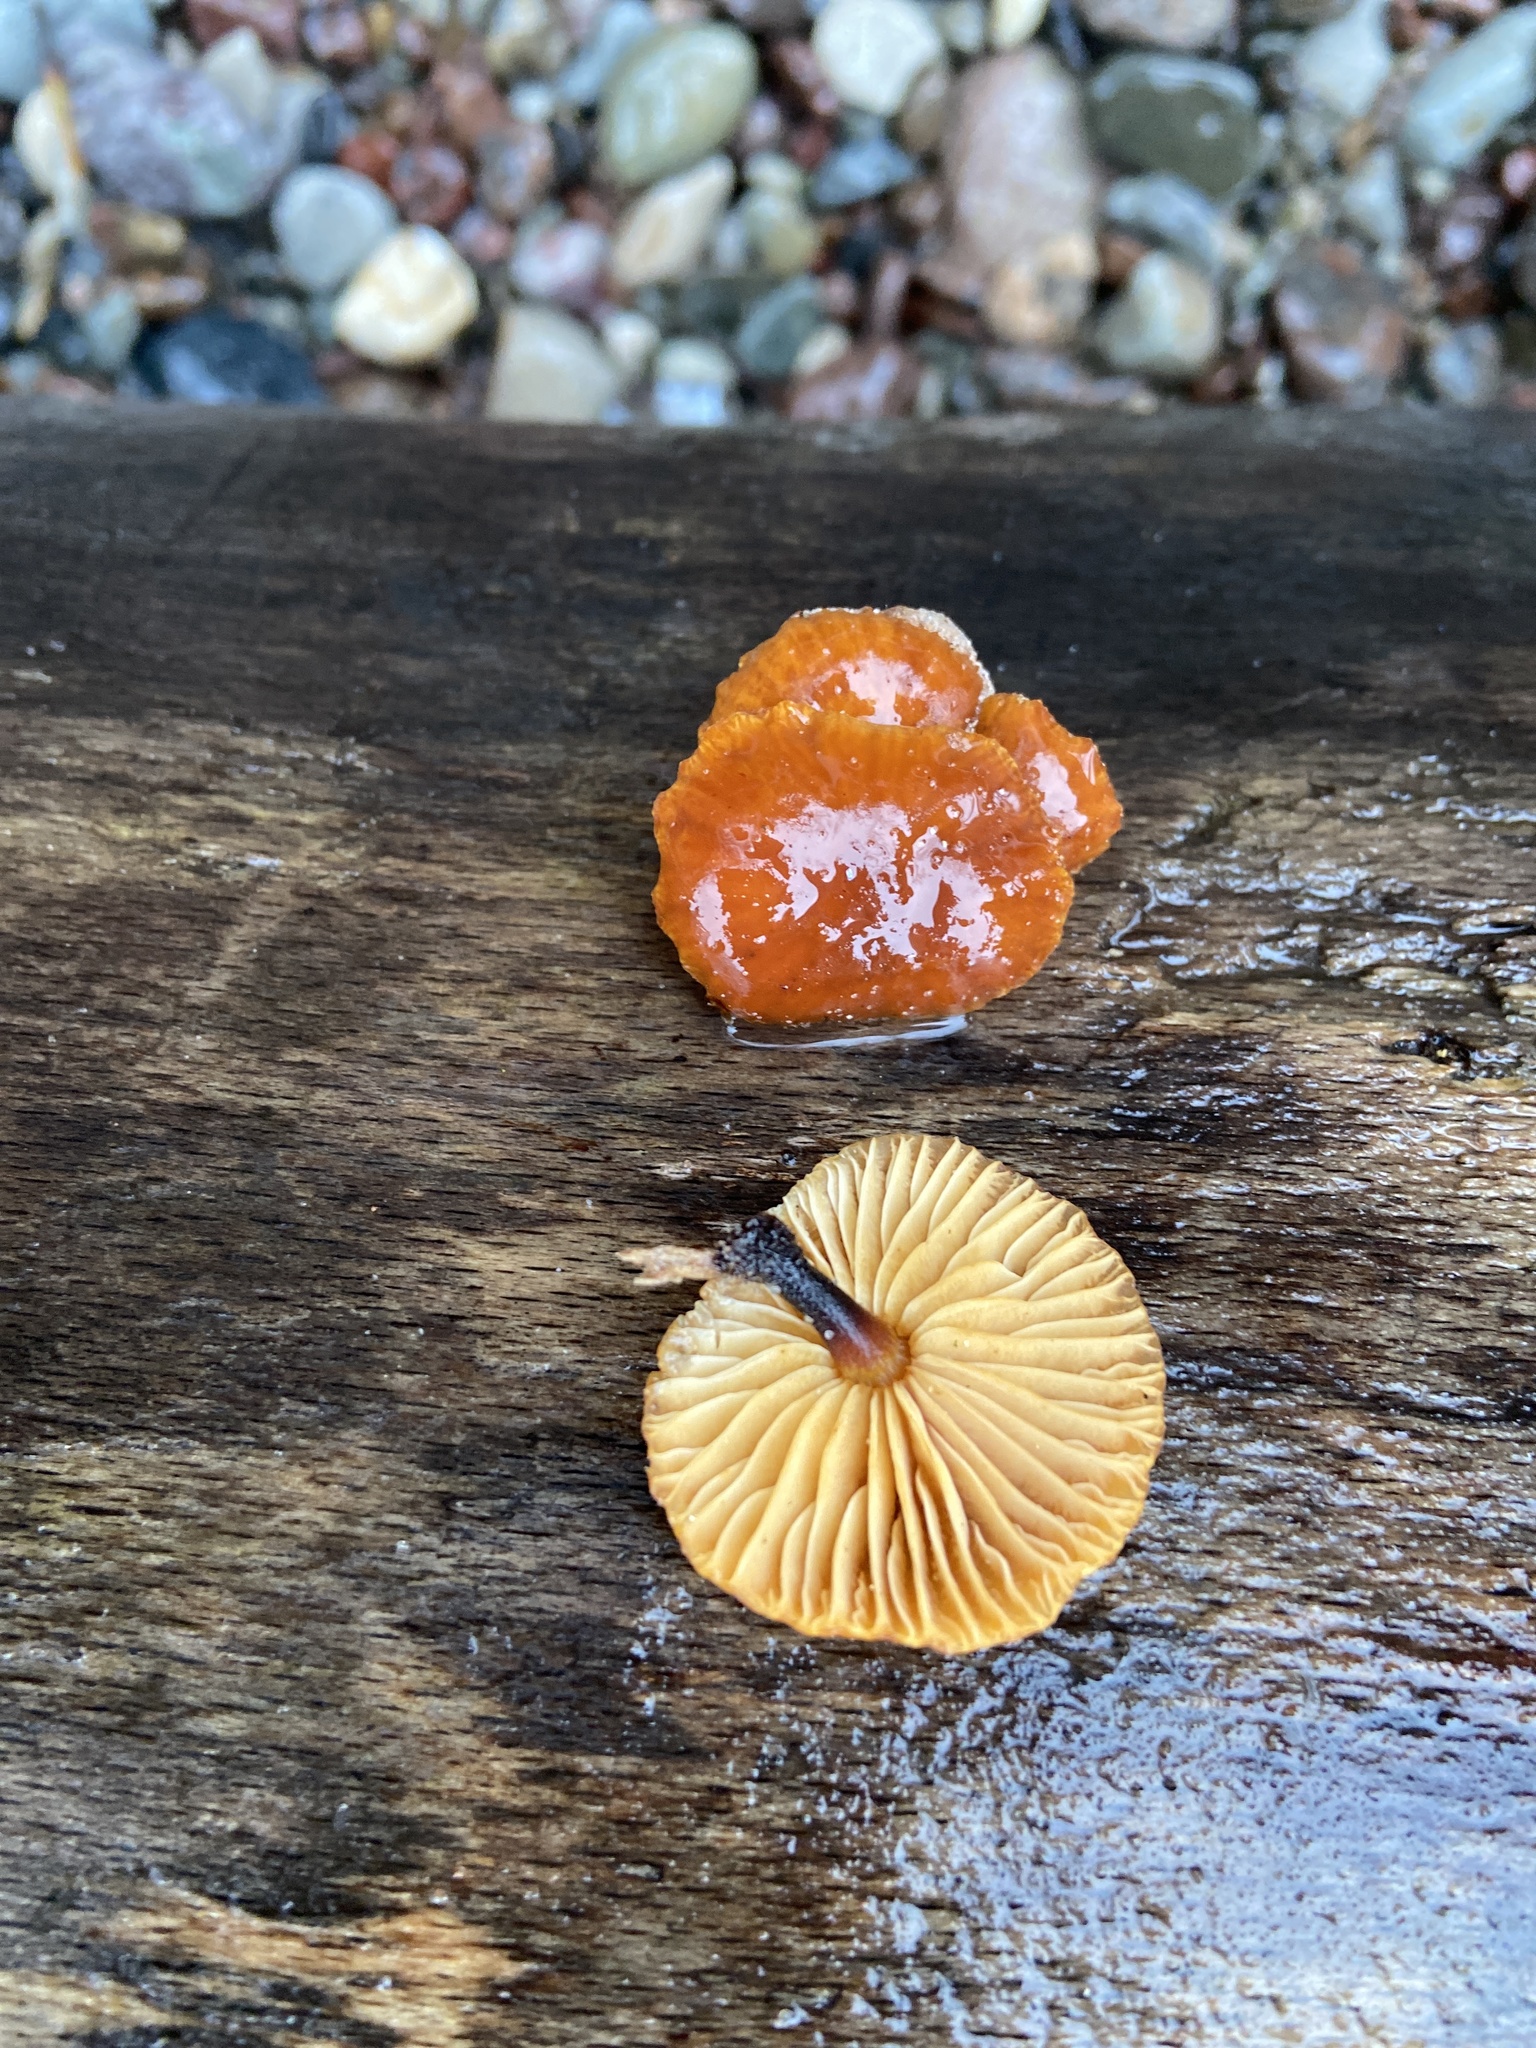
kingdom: Fungi
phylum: Basidiomycota
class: Agaricomycetes
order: Agaricales
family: Physalacriaceae
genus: Flammulina
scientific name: Flammulina
